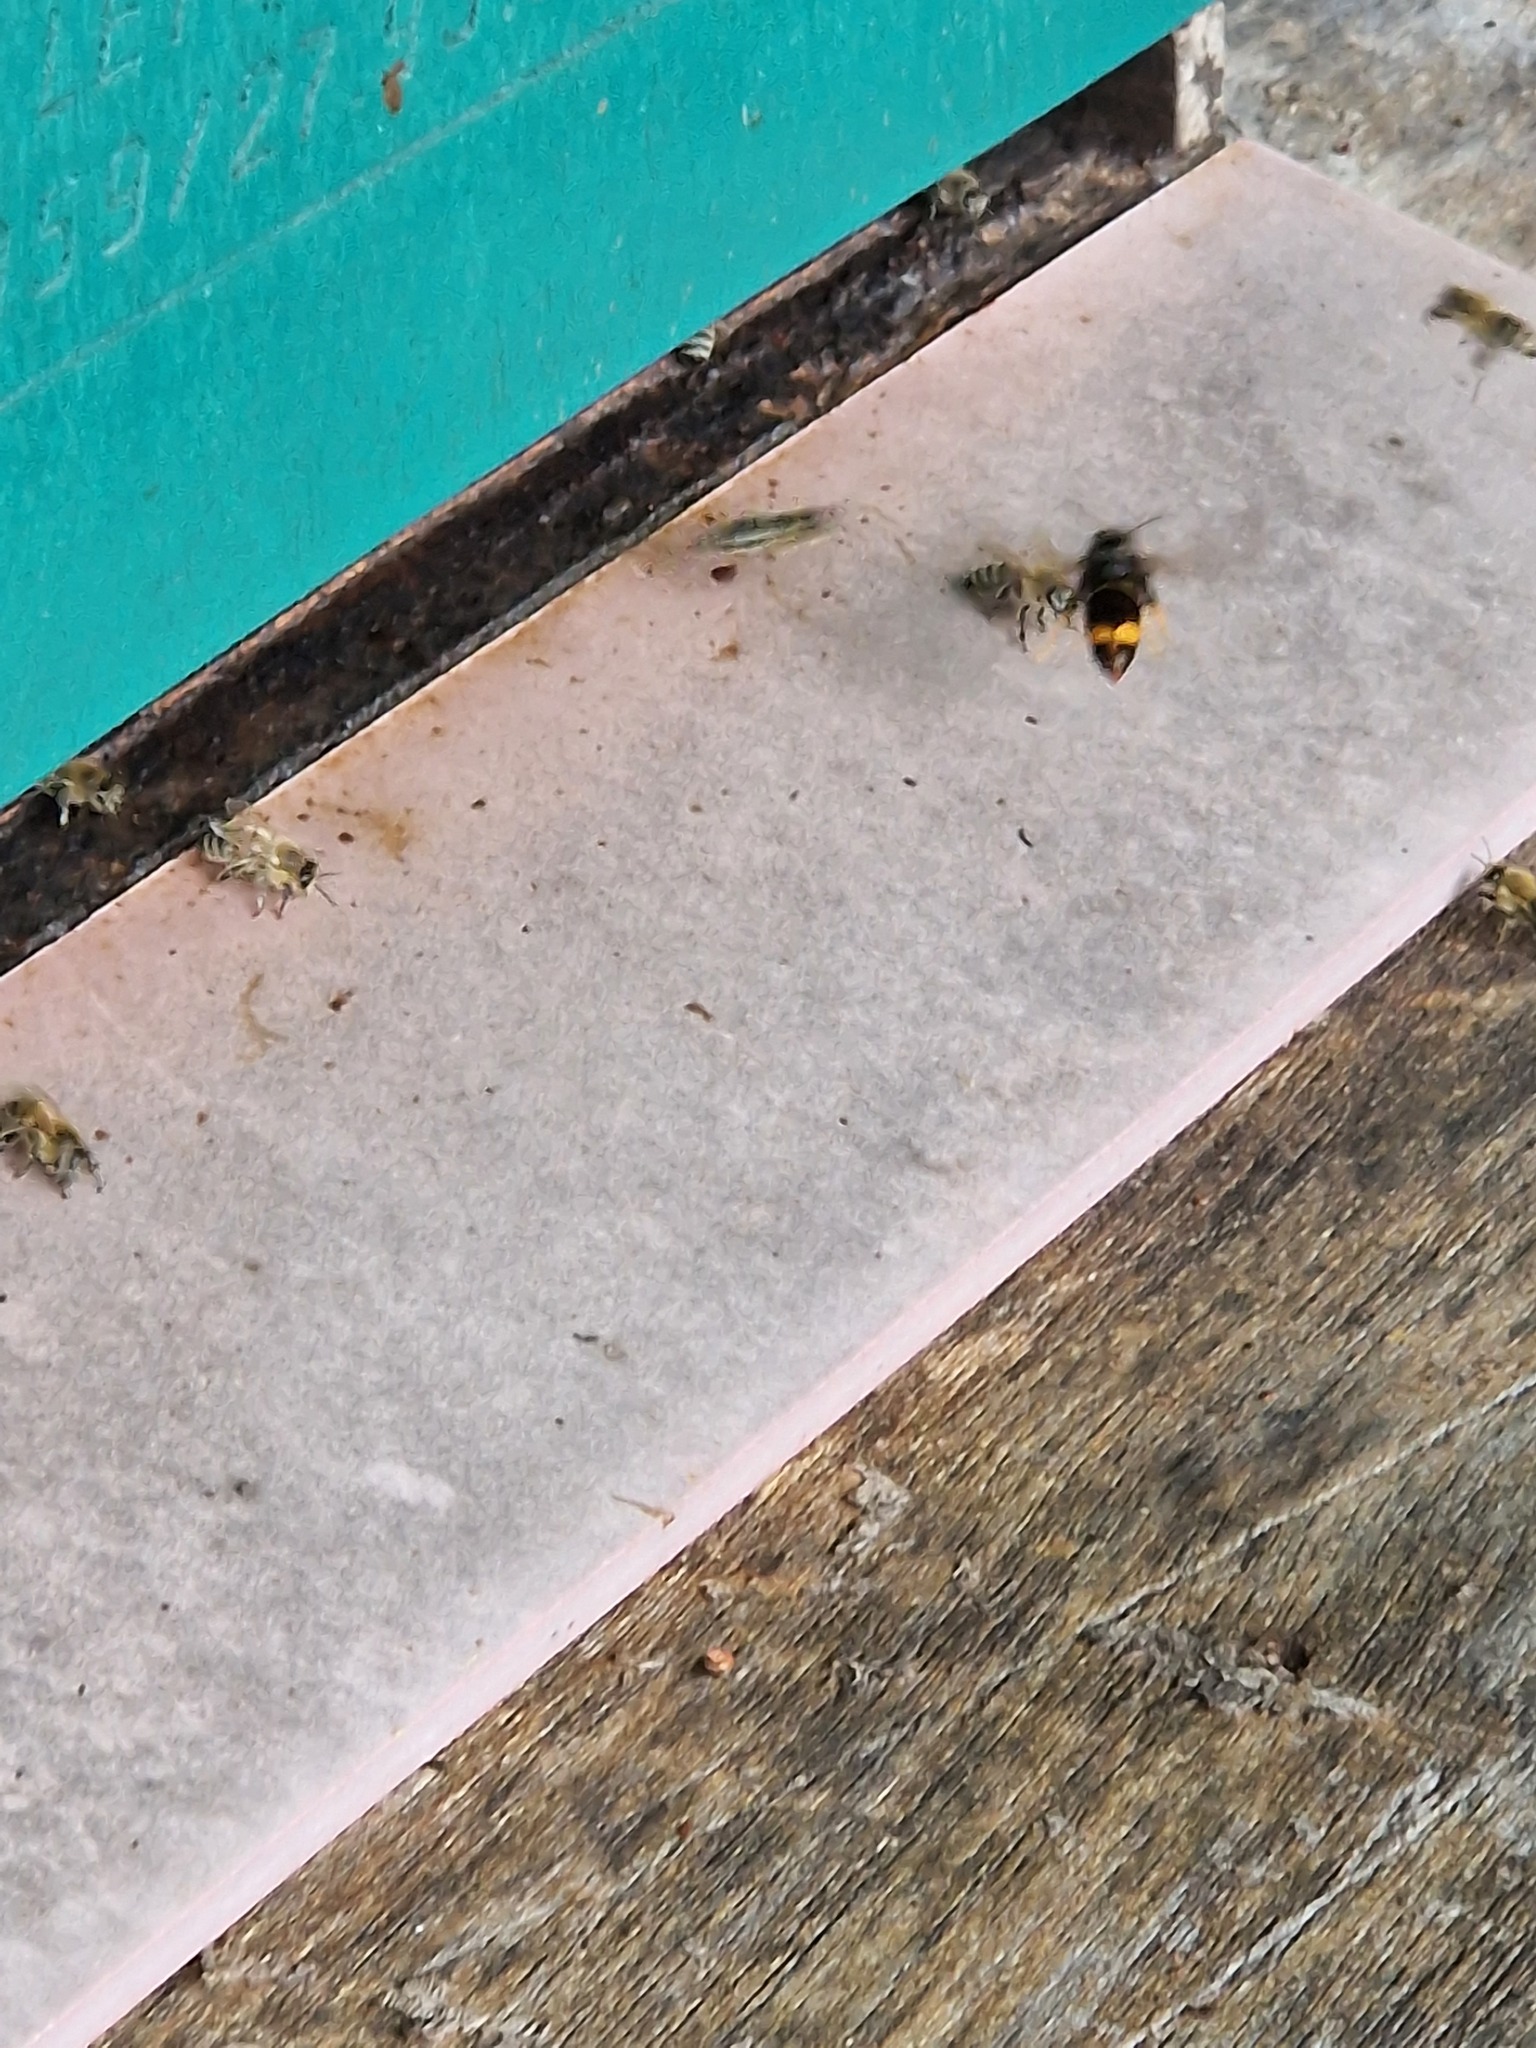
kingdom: Animalia
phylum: Arthropoda
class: Insecta
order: Hymenoptera
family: Vespidae
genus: Vespa
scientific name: Vespa velutina
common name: Asian hornet
